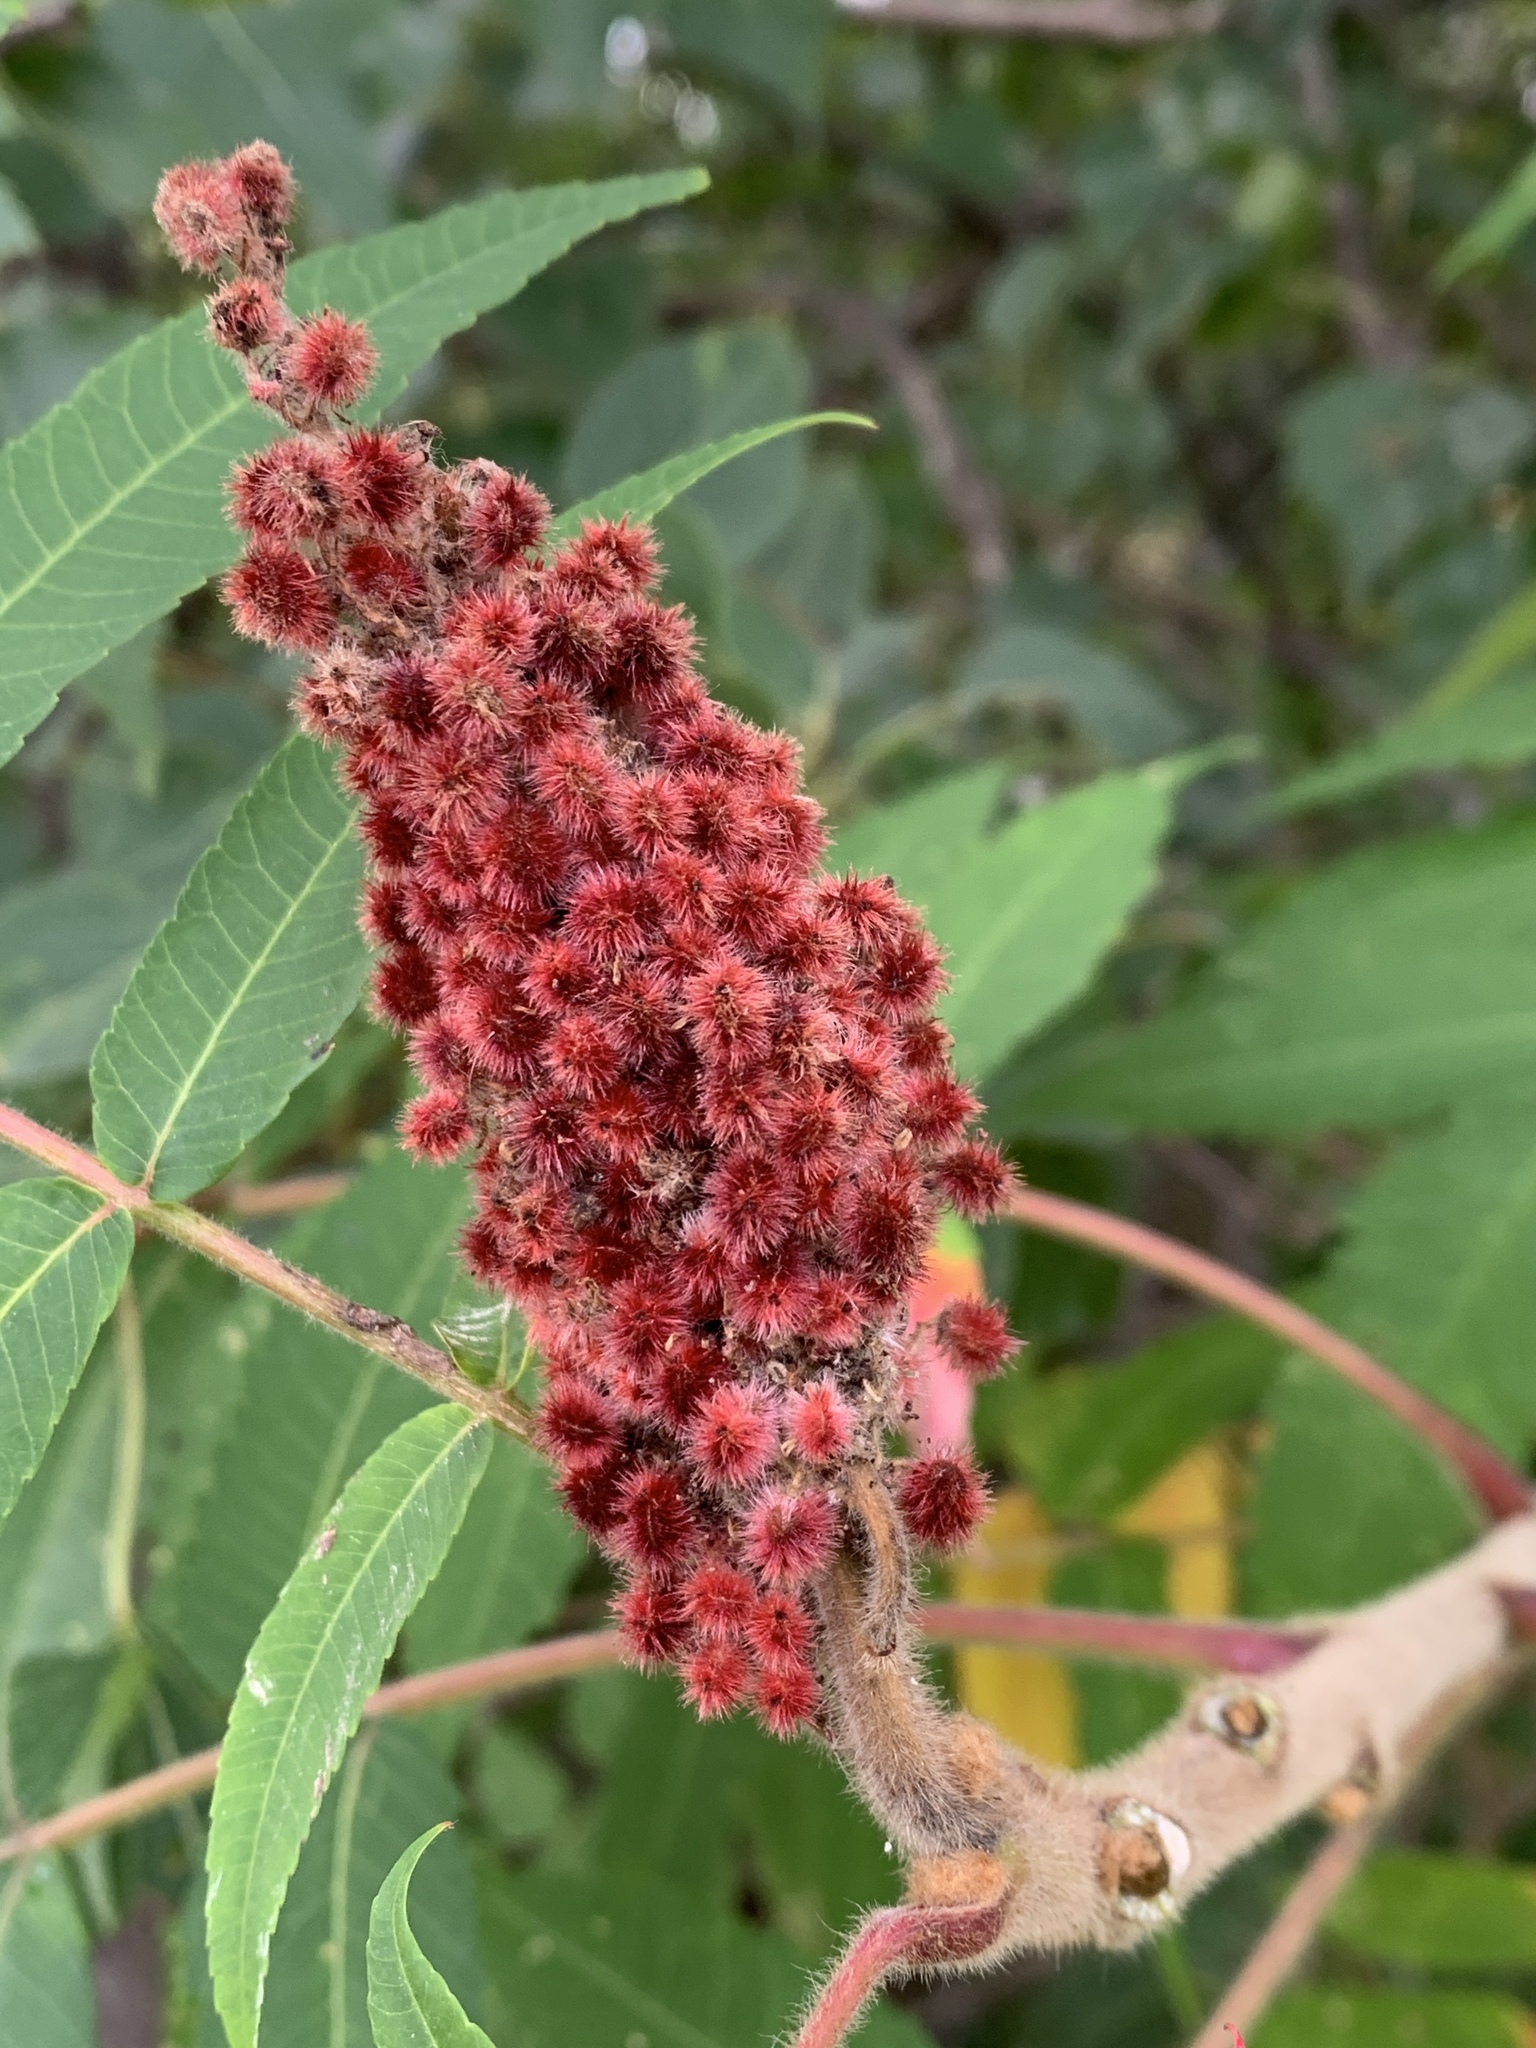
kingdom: Plantae
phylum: Tracheophyta
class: Magnoliopsida
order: Sapindales
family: Anacardiaceae
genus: Rhus
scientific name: Rhus typhina
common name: Staghorn sumac
